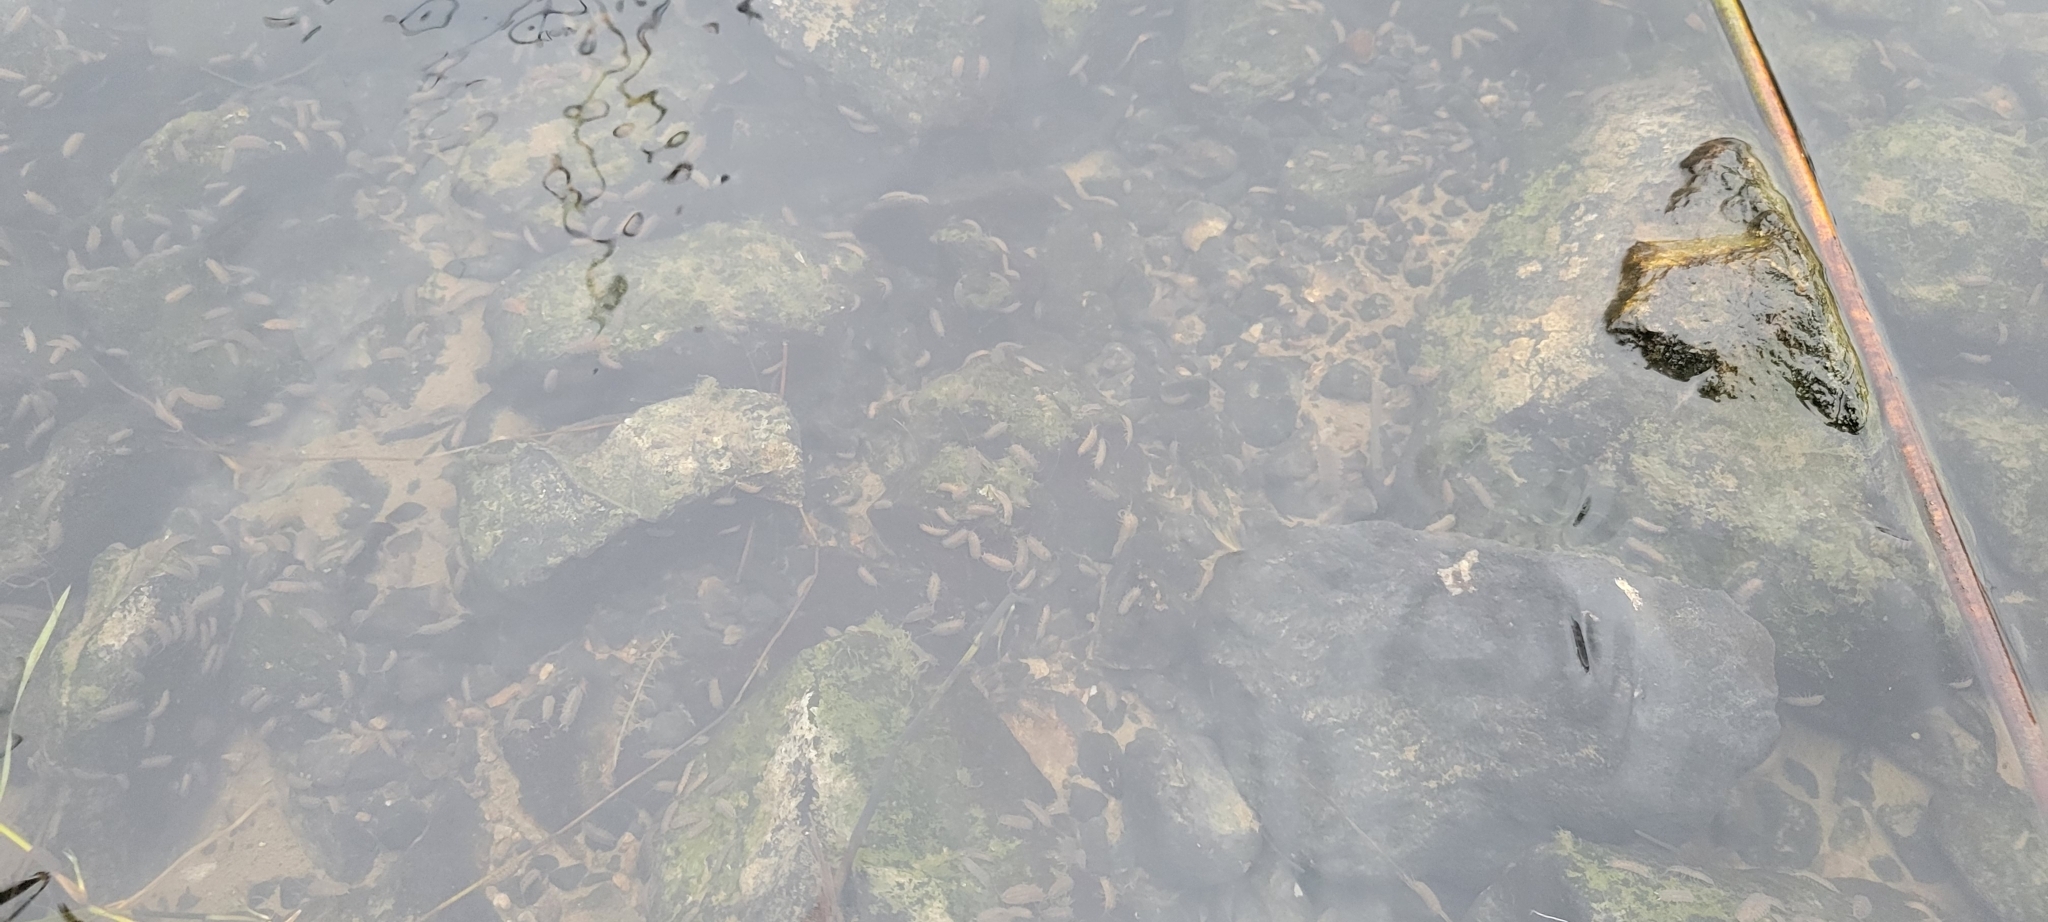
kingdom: Animalia
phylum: Arthropoda
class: Malacostraca
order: Isopoda
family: Asellidae
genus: Lirceus
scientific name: Lirceus fontinalis
